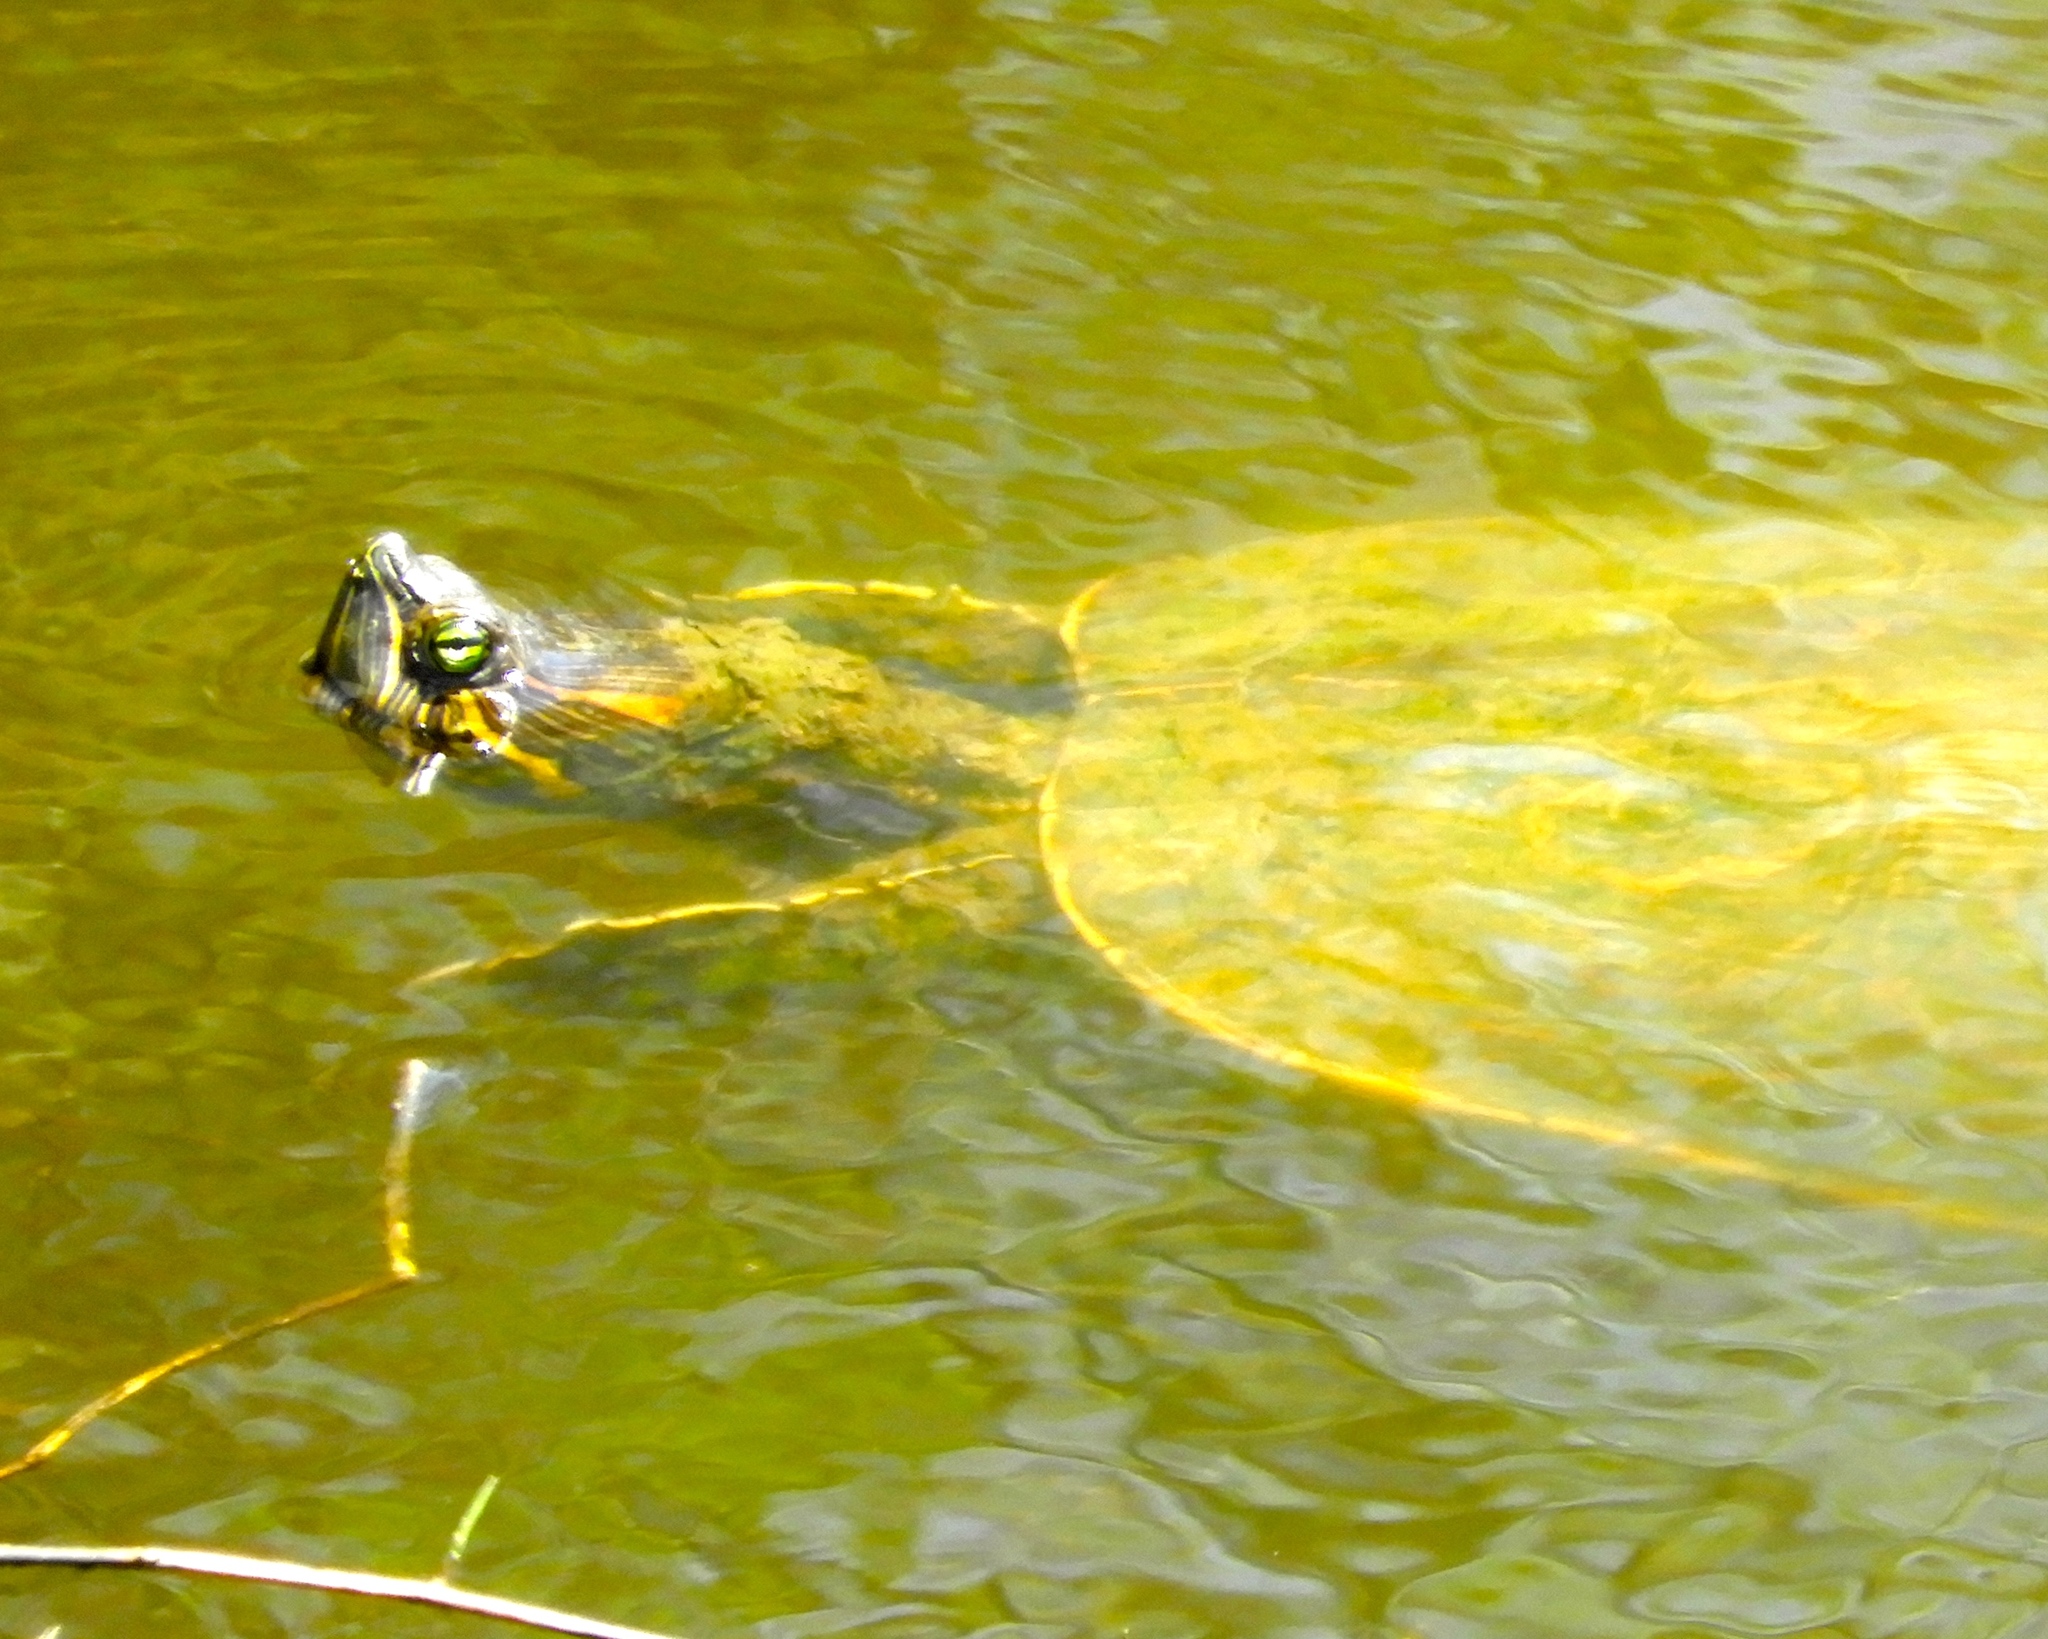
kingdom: Animalia
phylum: Chordata
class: Testudines
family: Emydidae
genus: Trachemys
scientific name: Trachemys ornata
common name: Ornate slider
